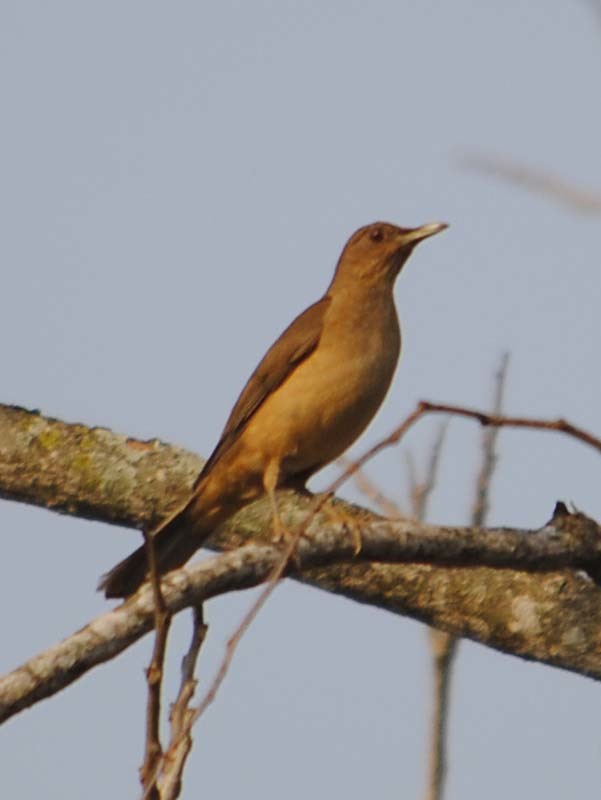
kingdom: Animalia
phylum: Chordata
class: Aves
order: Passeriformes
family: Turdidae
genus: Turdus
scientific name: Turdus grayi
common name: Clay-colored thrush
